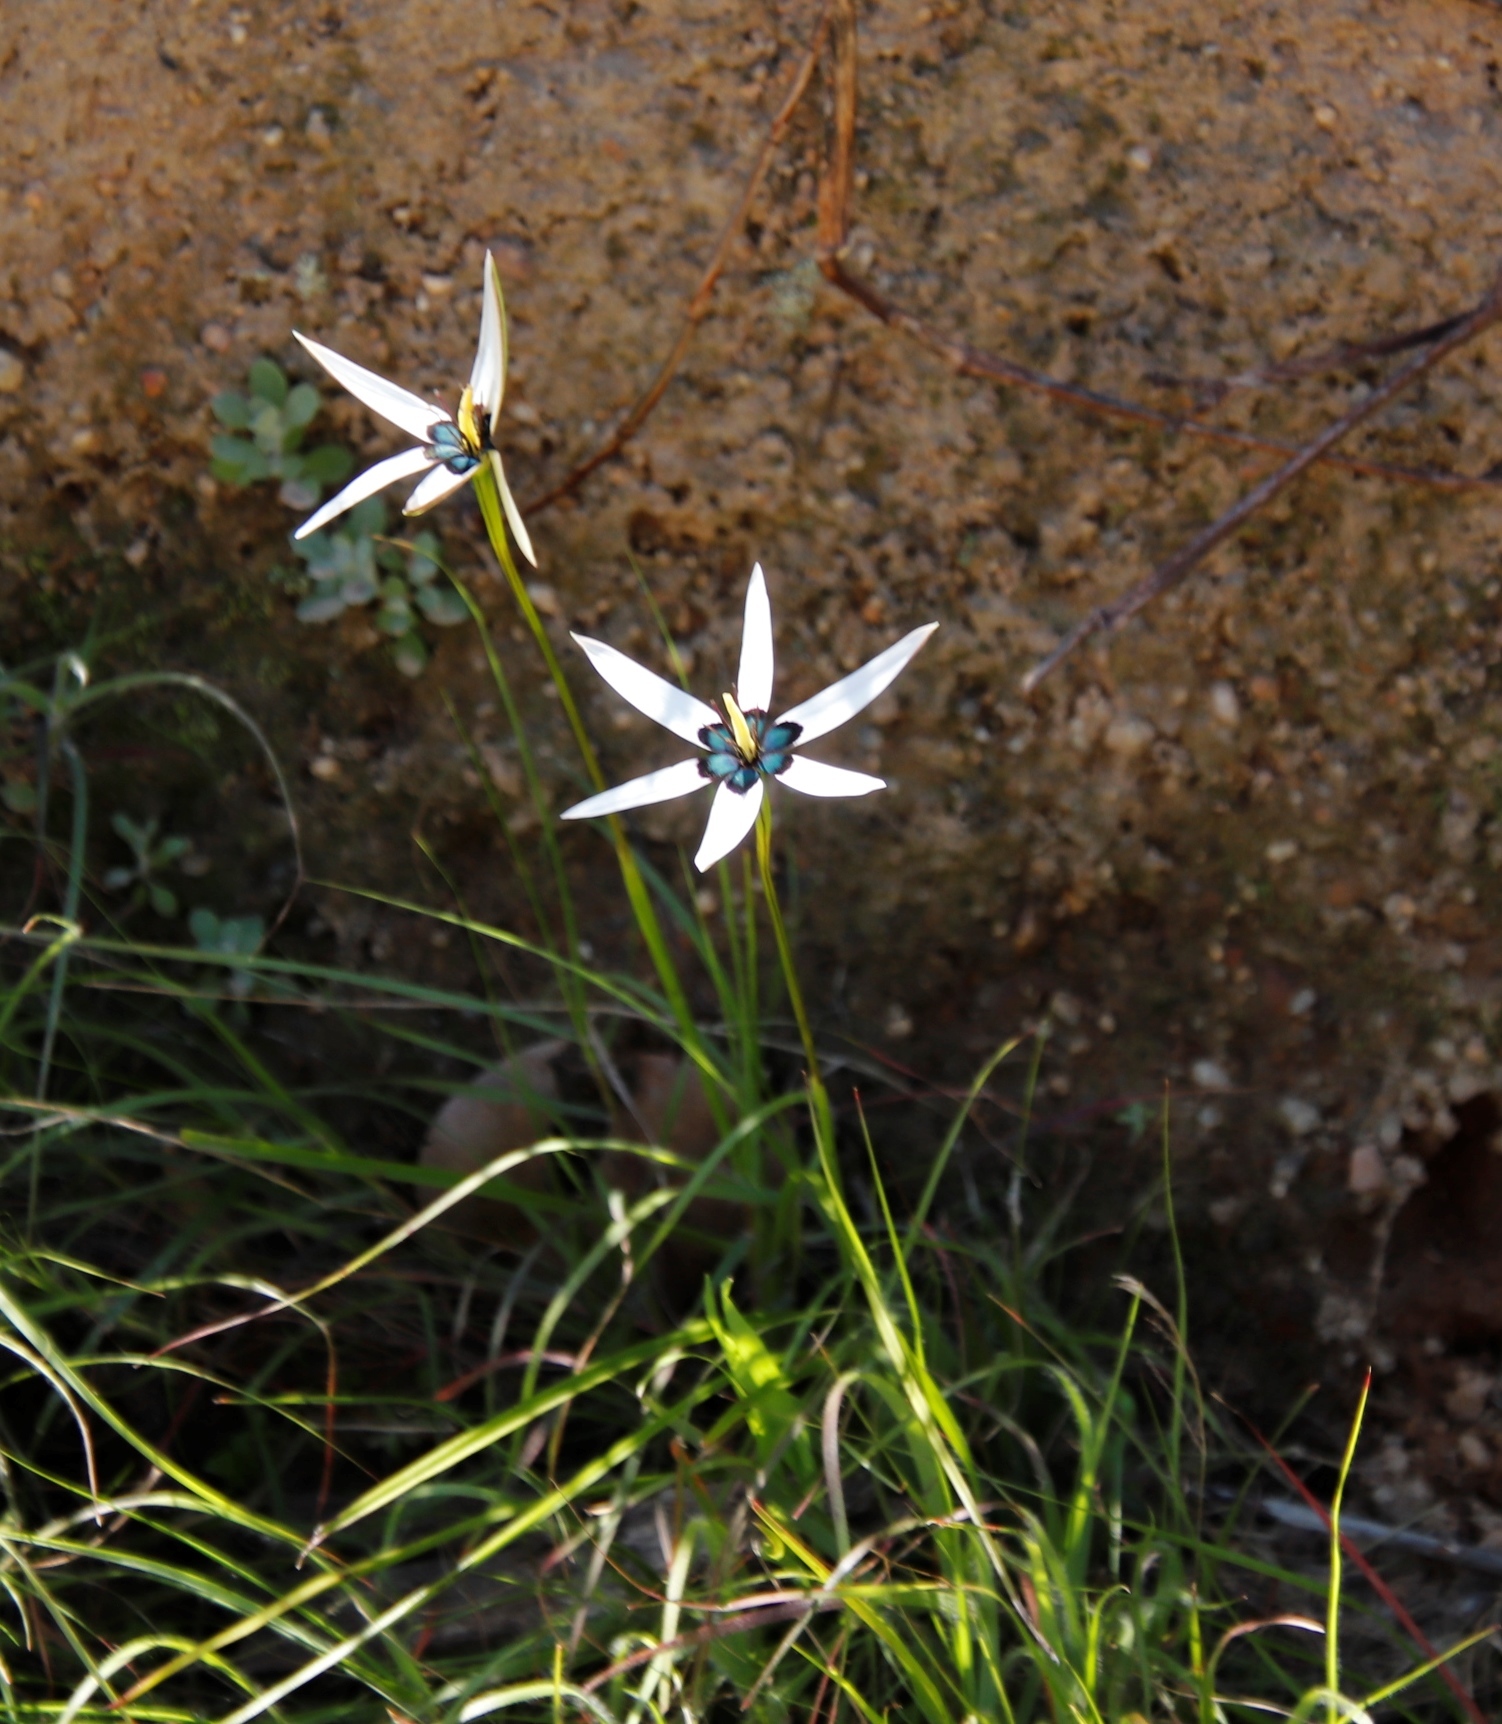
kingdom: Plantae
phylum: Tracheophyta
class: Liliopsida
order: Asparagales
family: Hypoxidaceae
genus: Pauridia
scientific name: Pauridia capensis
